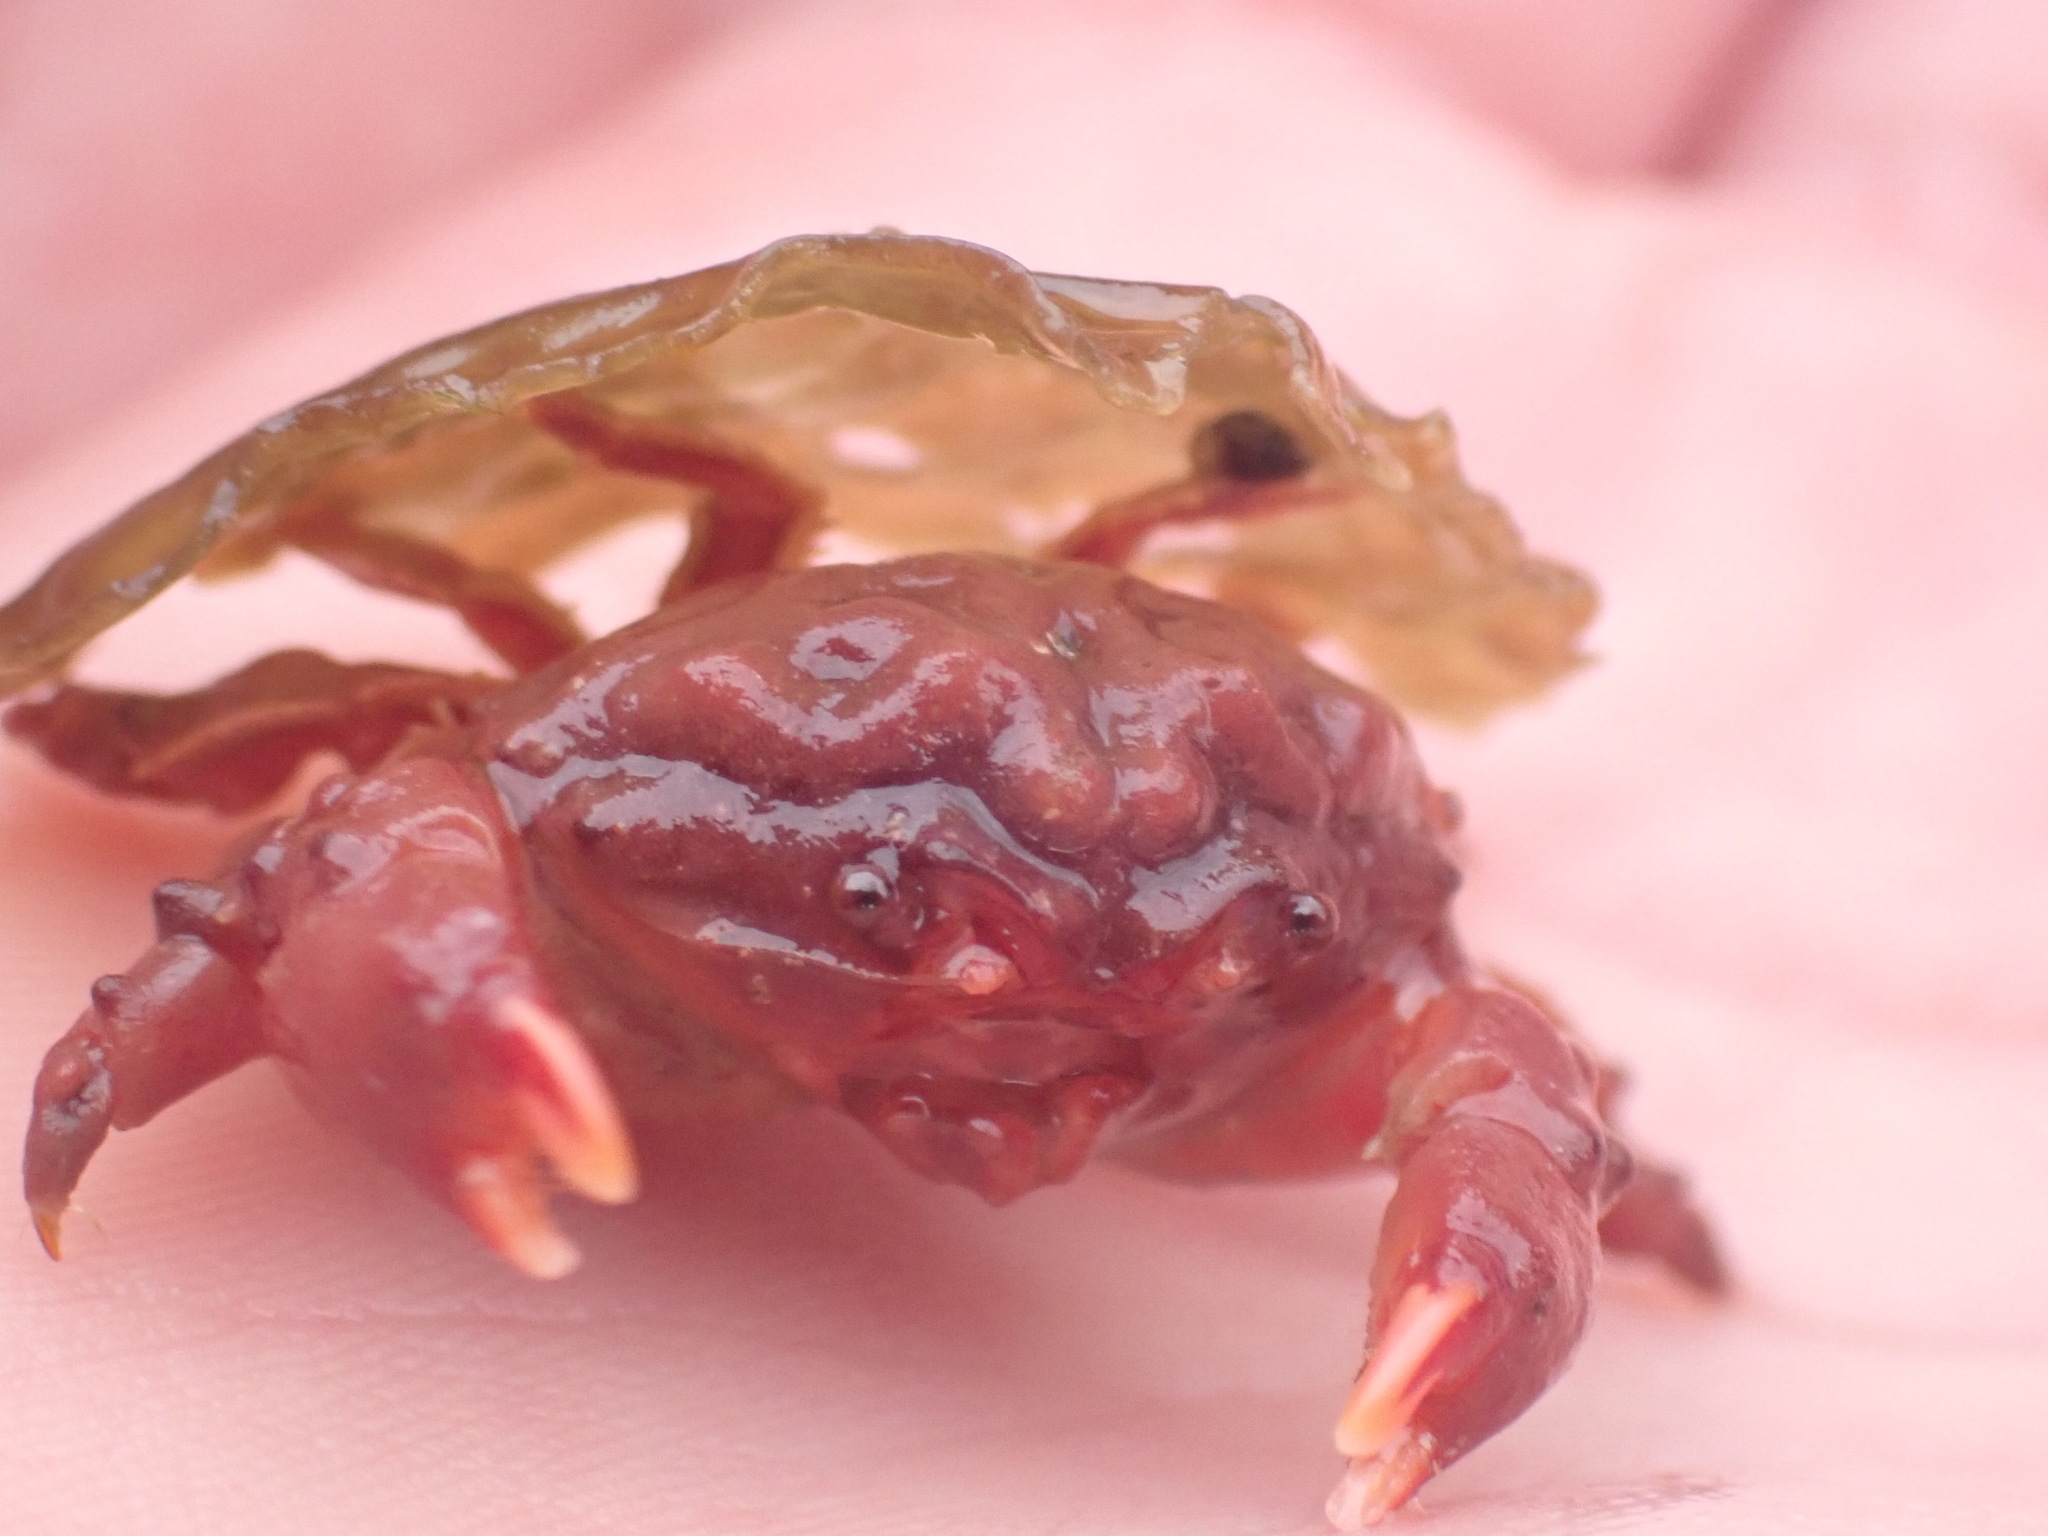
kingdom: Animalia
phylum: Arthropoda
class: Malacostraca
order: Decapoda
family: Dromiidae
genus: Metadromia
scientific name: Metadromia wilsoni
